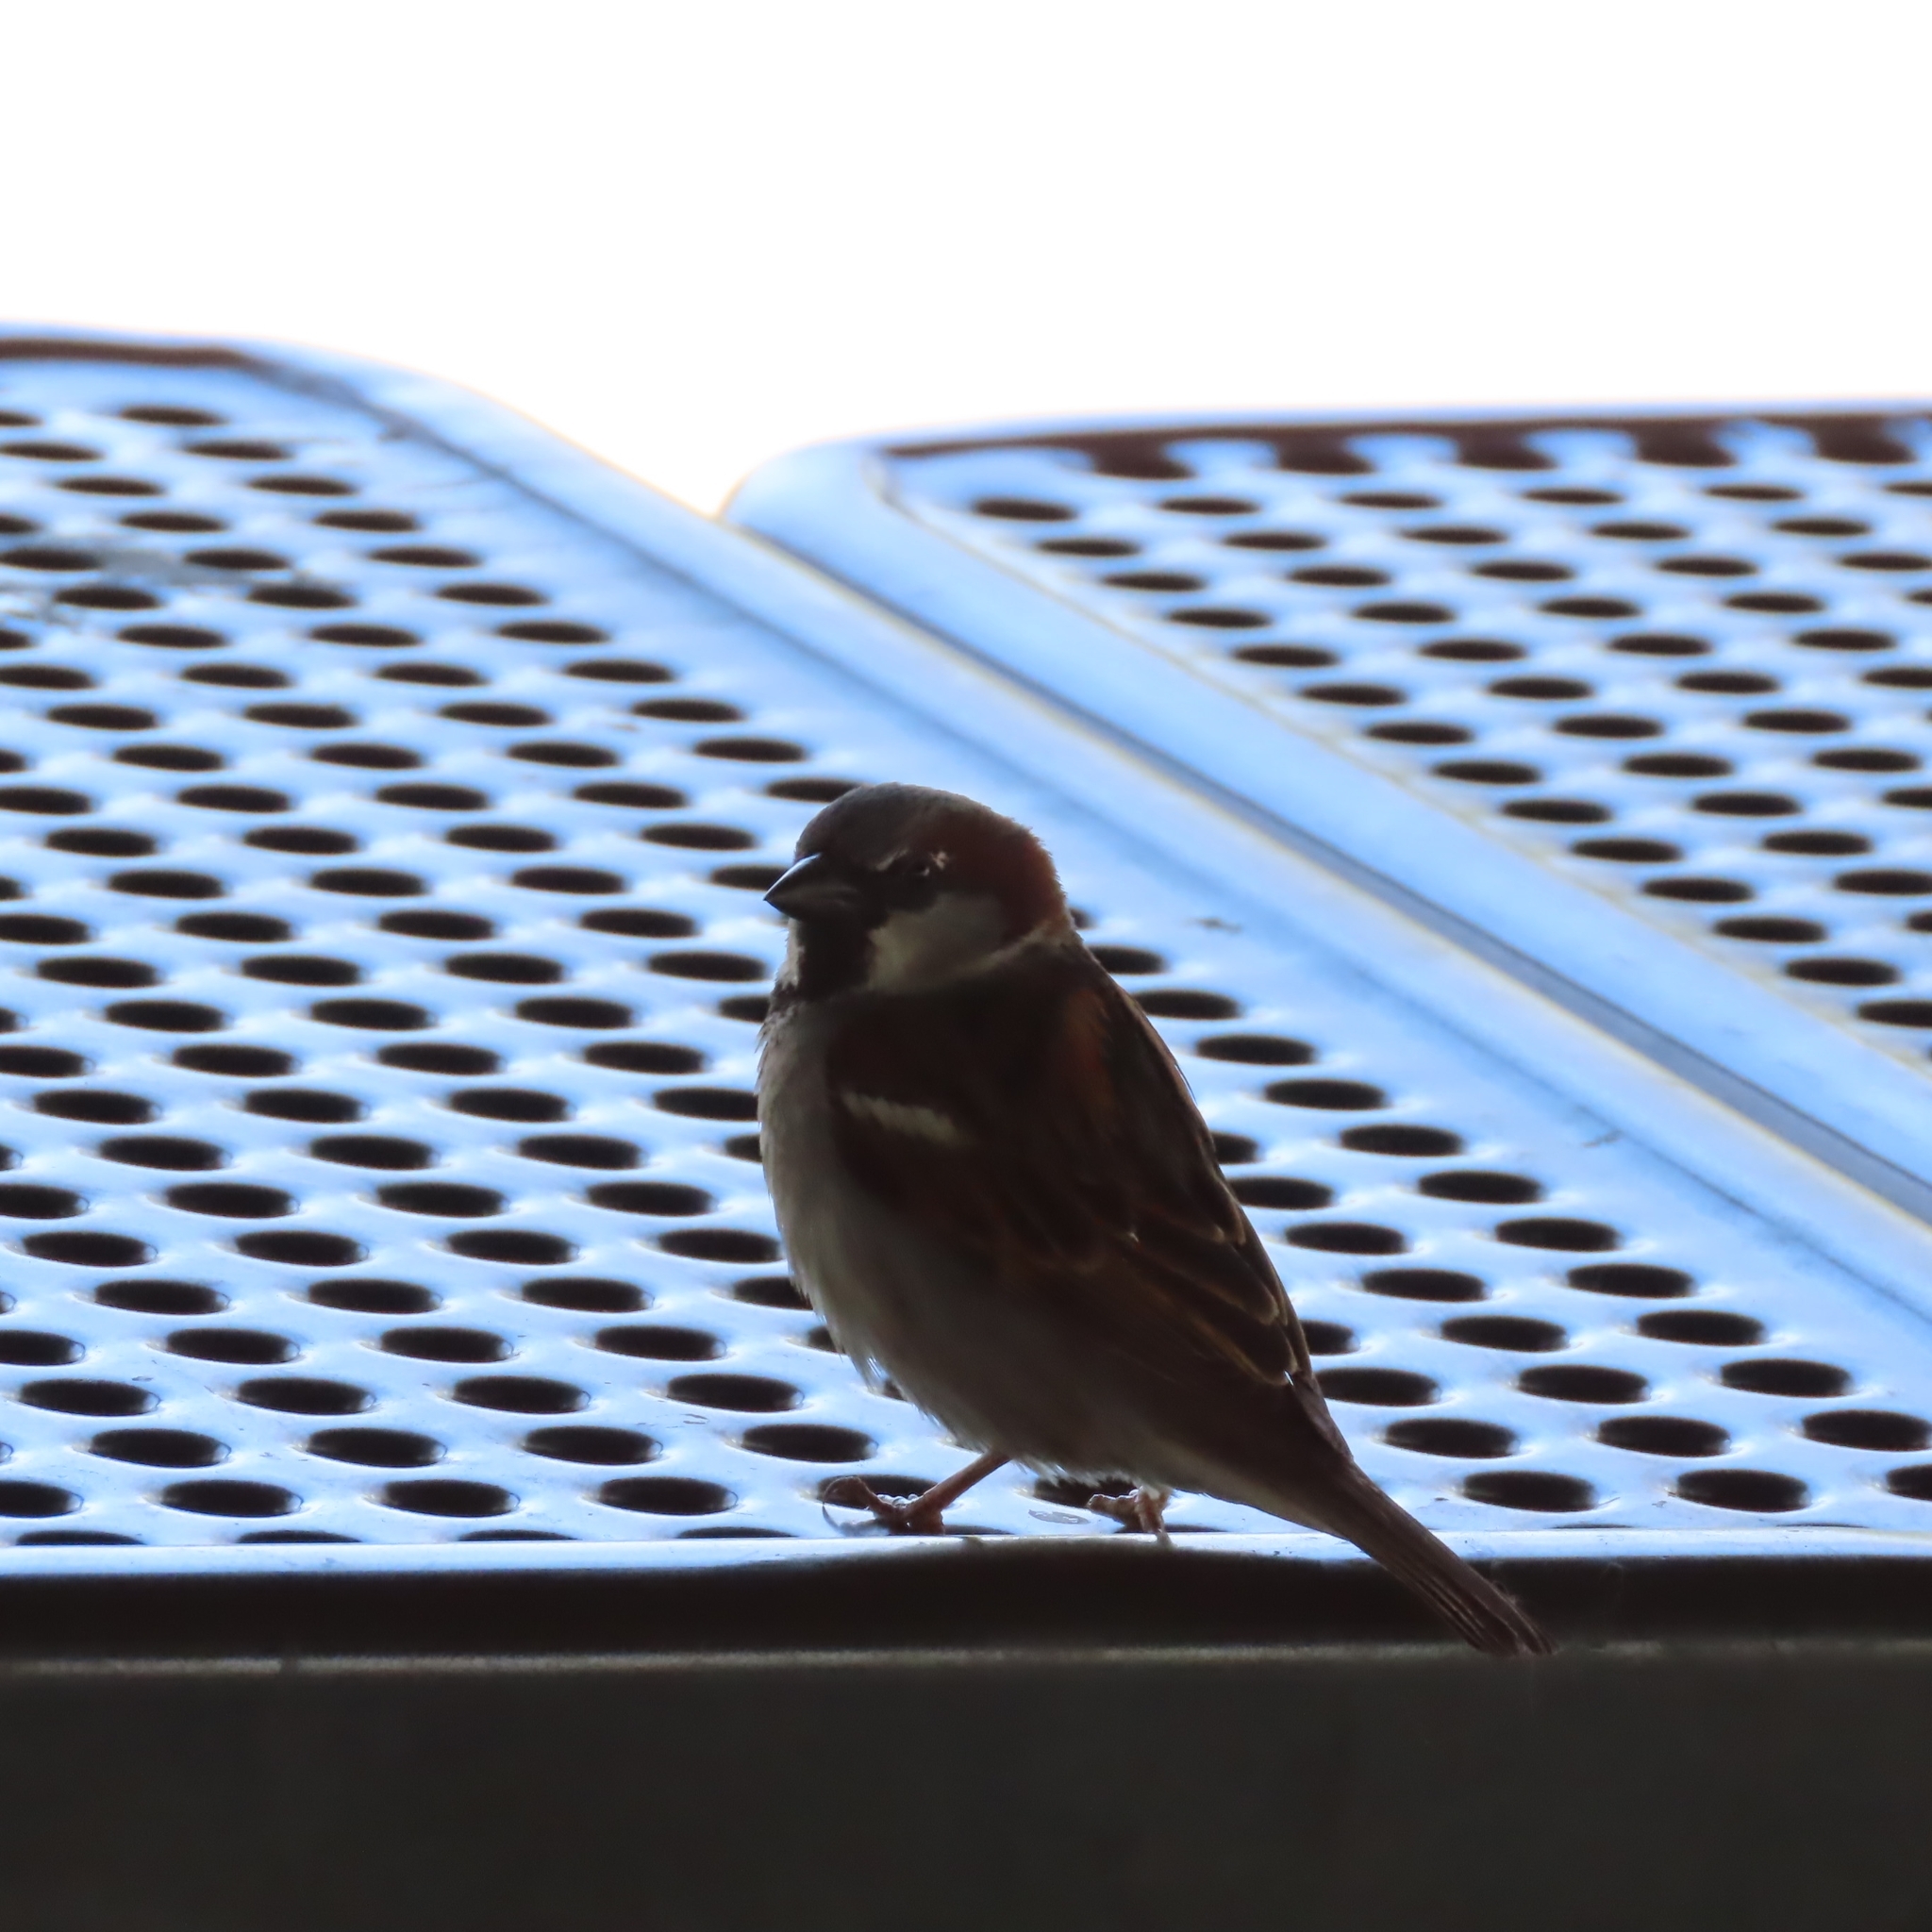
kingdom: Animalia
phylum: Chordata
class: Aves
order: Passeriformes
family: Passeridae
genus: Passer
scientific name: Passer domesticus
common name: House sparrow
